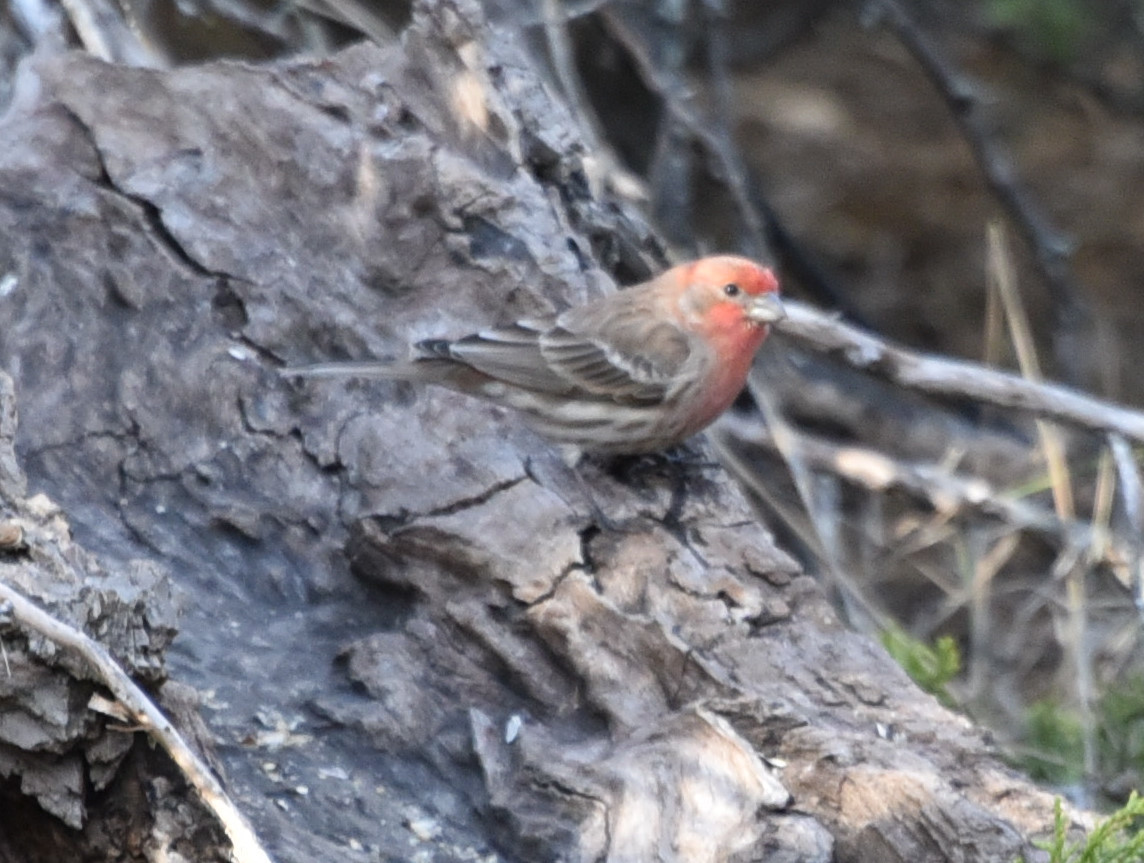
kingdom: Animalia
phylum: Chordata
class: Aves
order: Passeriformes
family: Fringillidae
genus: Haemorhous
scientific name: Haemorhous mexicanus
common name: House finch
